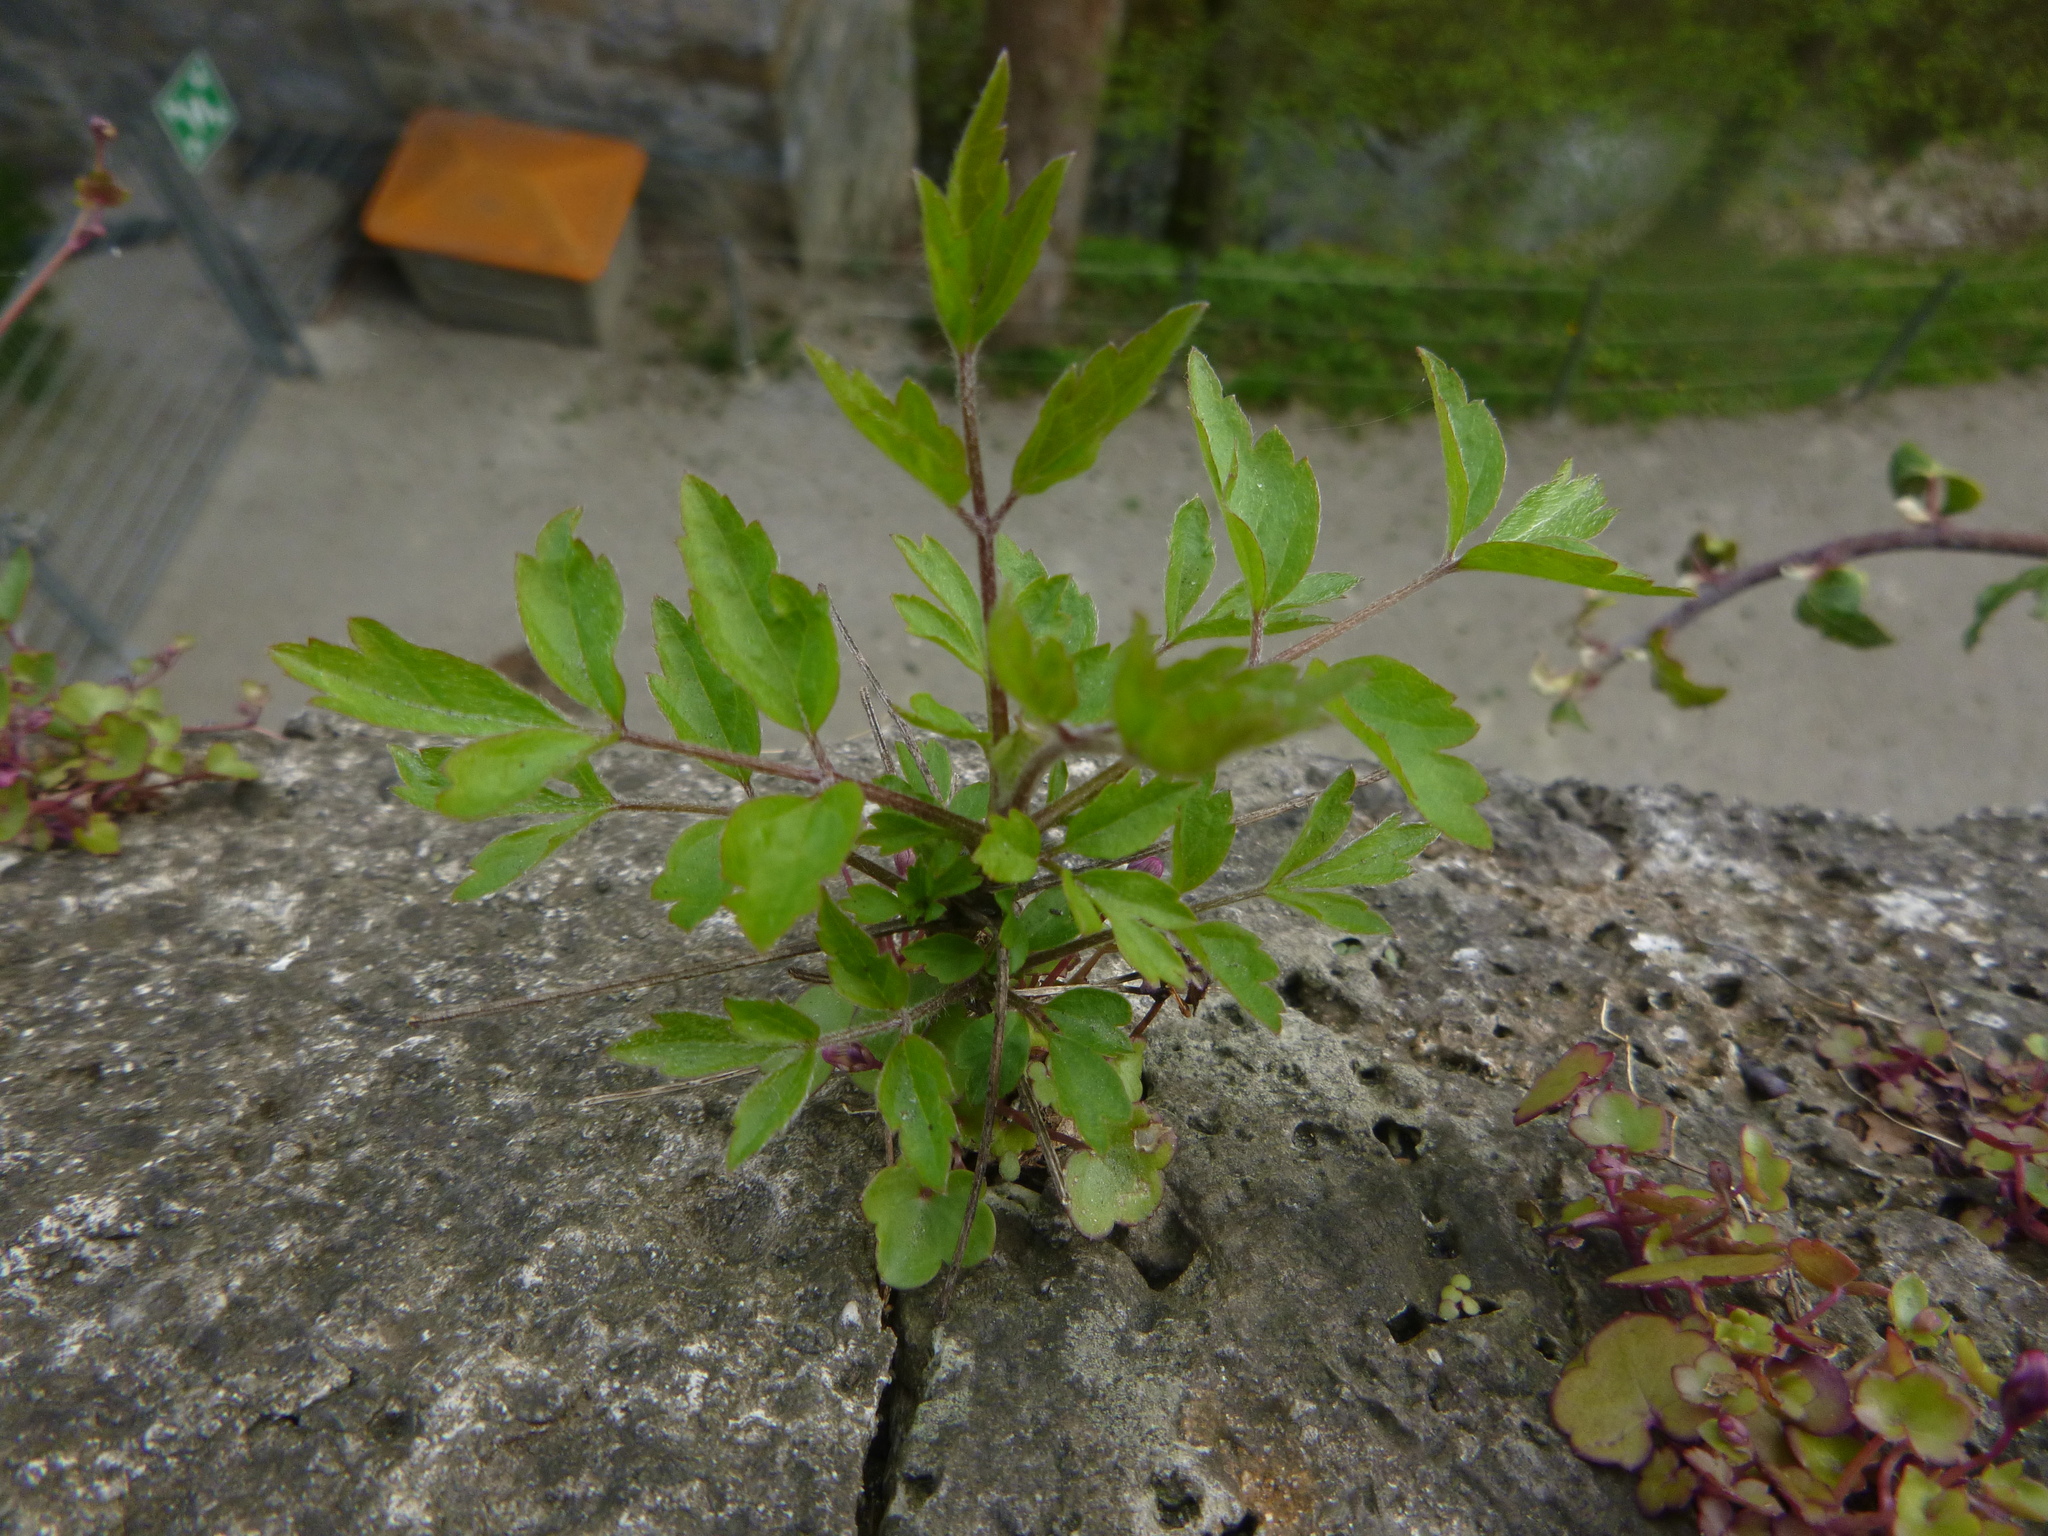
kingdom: Plantae
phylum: Tracheophyta
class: Magnoliopsida
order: Ranunculales
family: Ranunculaceae
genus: Clematis
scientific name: Clematis vitalba
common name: Evergreen clematis
